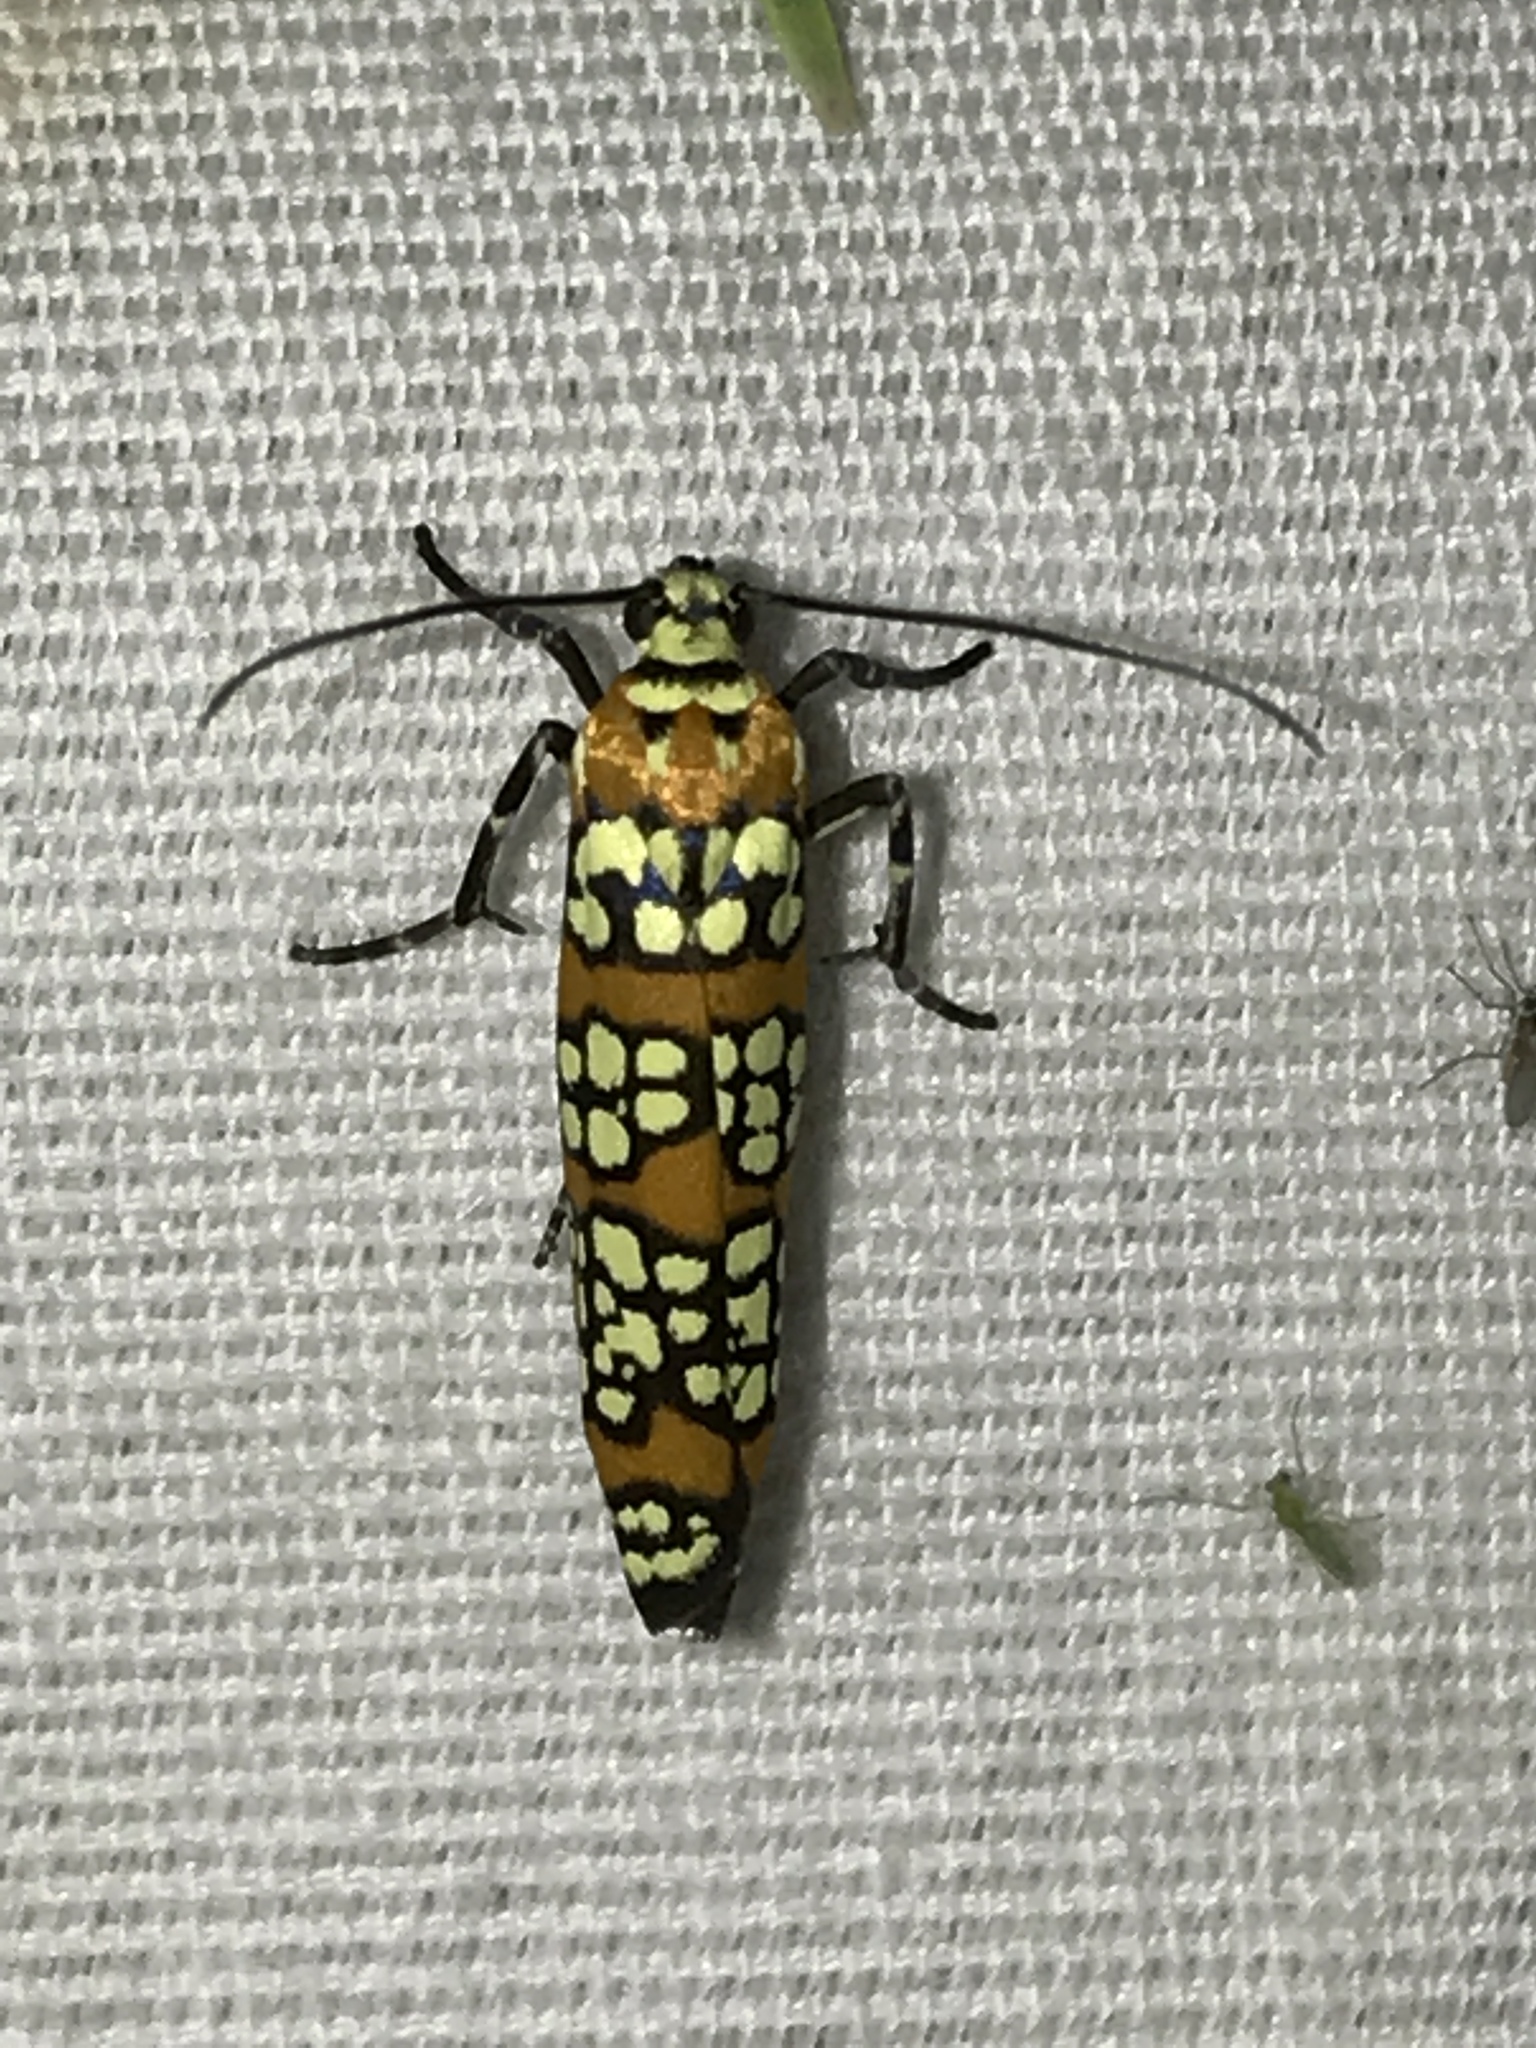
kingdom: Animalia
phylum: Arthropoda
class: Insecta
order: Lepidoptera
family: Attevidae
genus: Atteva
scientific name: Atteva punctella
